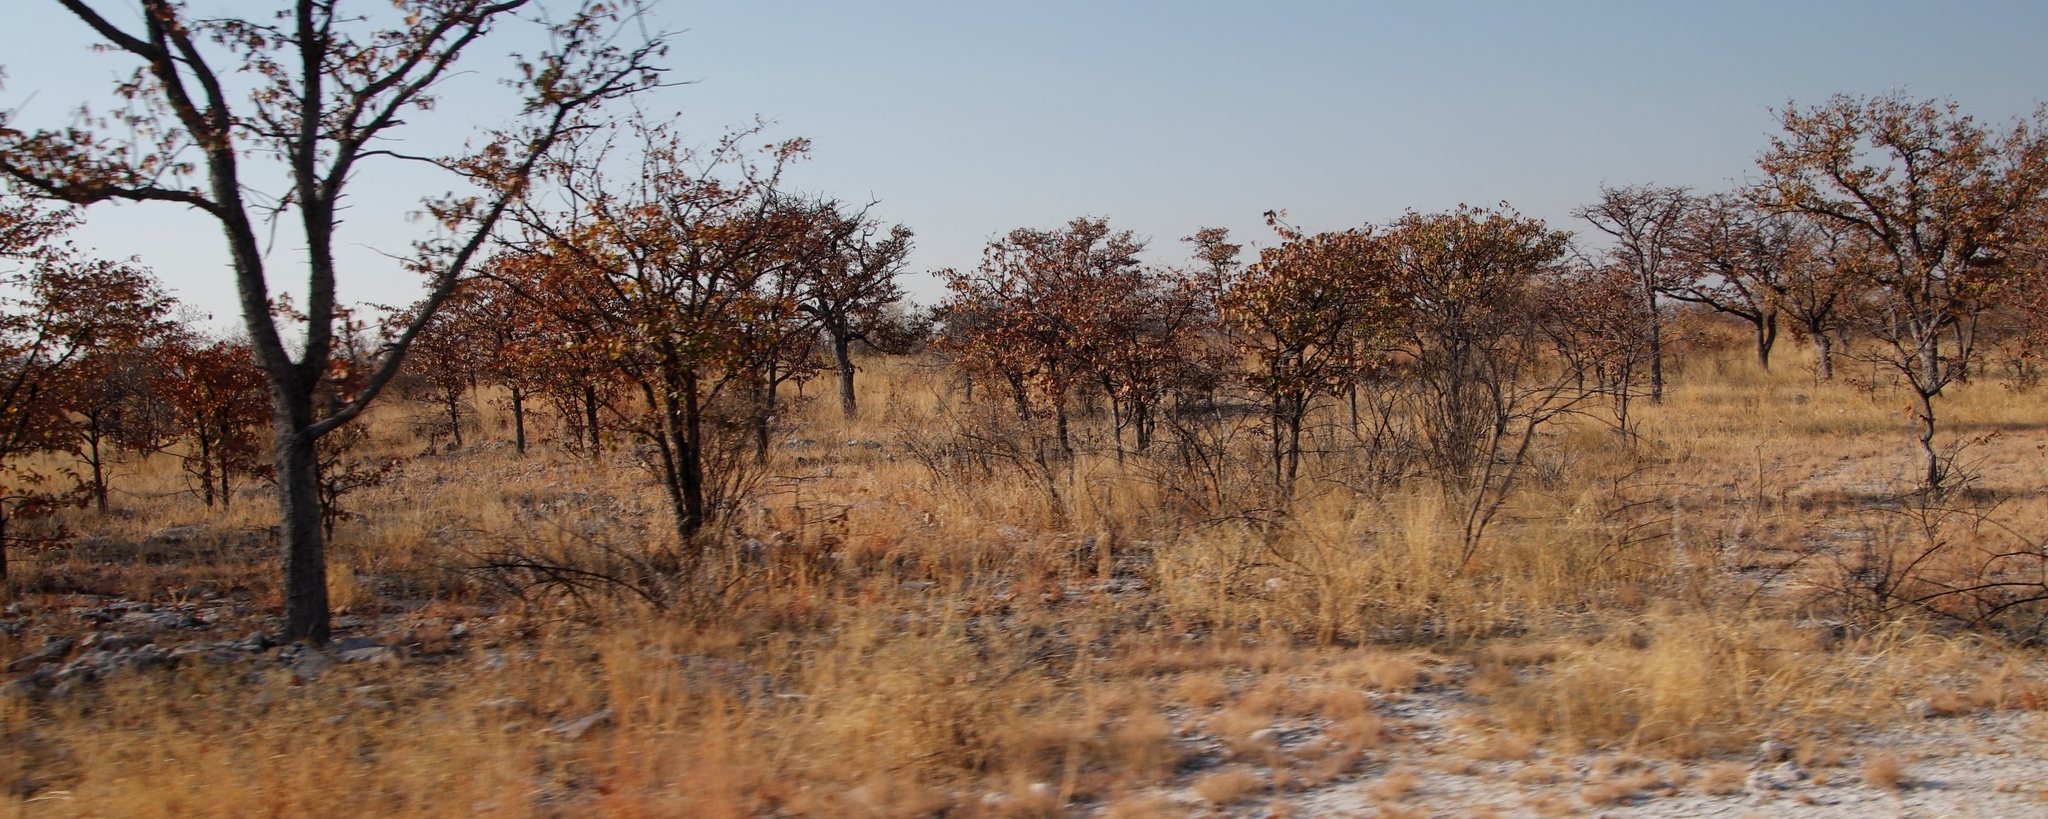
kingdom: Plantae
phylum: Tracheophyta
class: Magnoliopsida
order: Fabales
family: Fabaceae
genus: Colophospermum
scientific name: Colophospermum mopane
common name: Mopane
